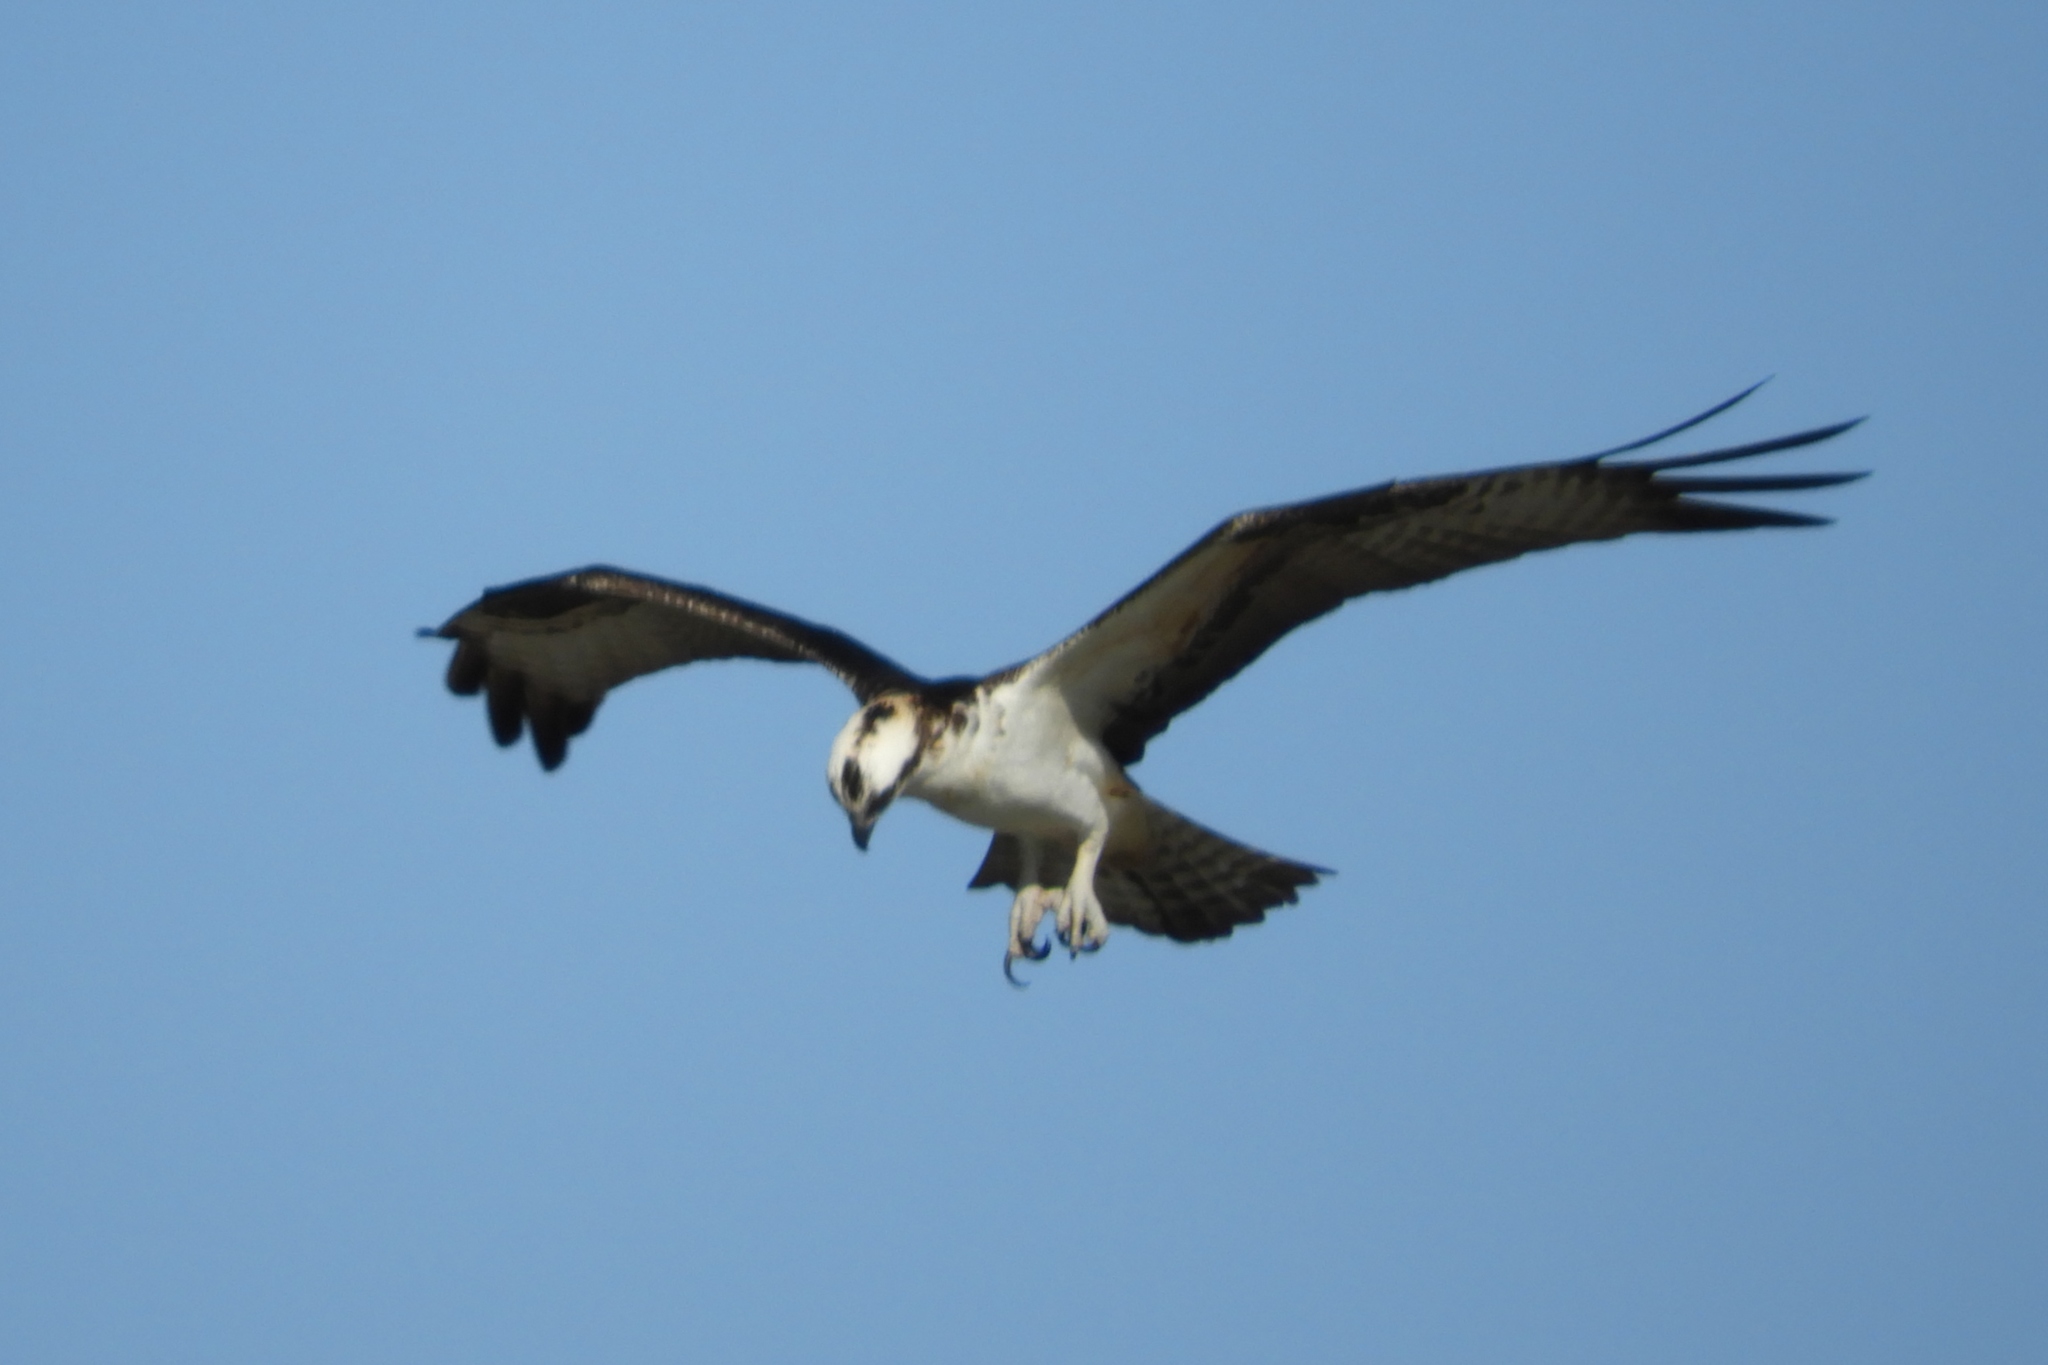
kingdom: Animalia
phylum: Chordata
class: Aves
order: Accipitriformes
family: Pandionidae
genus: Pandion
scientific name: Pandion haliaetus
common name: Osprey
